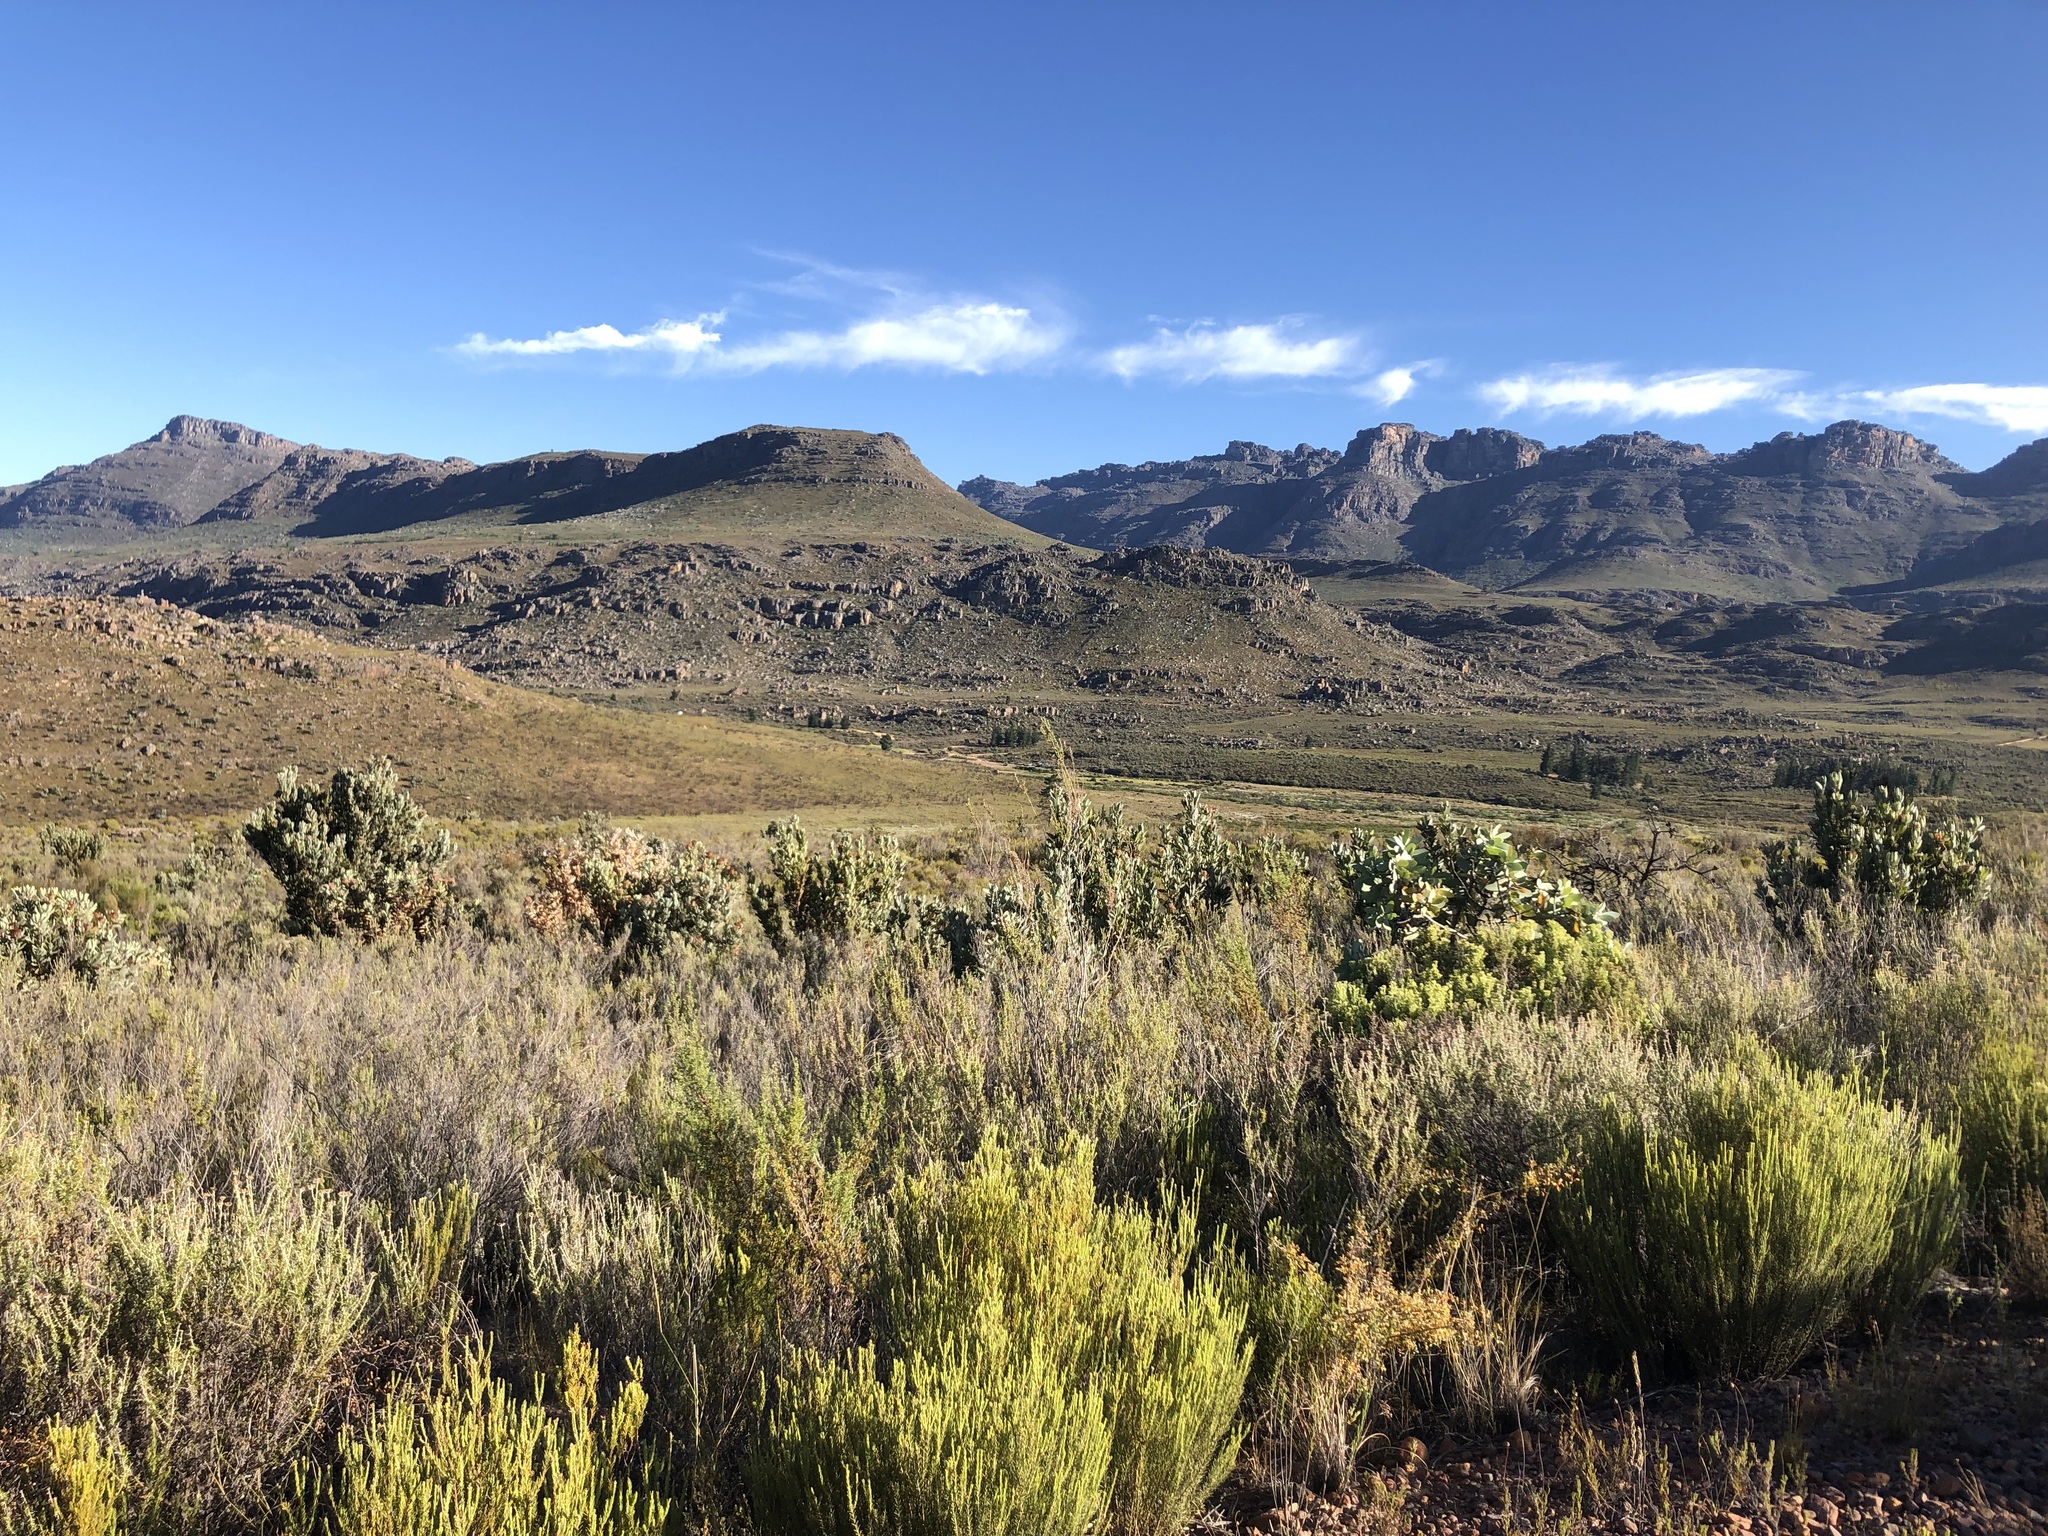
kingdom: Plantae
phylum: Tracheophyta
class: Magnoliopsida
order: Proteales
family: Proteaceae
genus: Protea
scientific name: Protea laurifolia
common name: Grey-leaf sugarbsh
